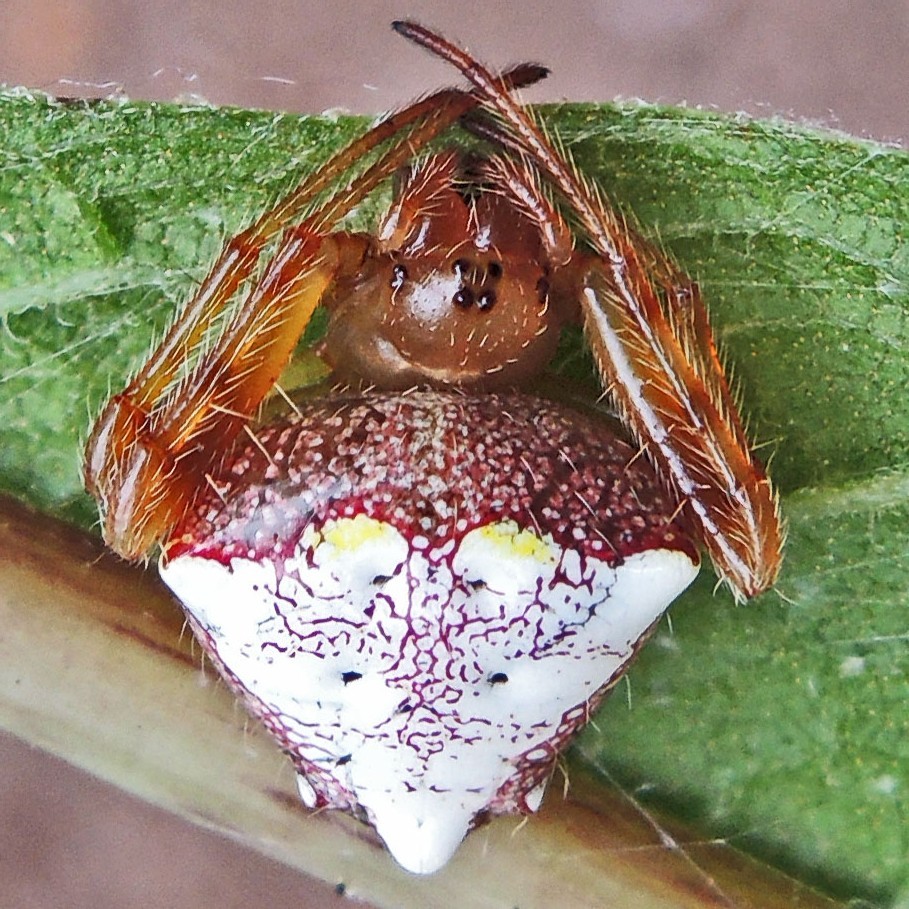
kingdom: Animalia
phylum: Arthropoda
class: Arachnida
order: Araneae
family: Araneidae
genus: Verrucosa
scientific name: Verrucosa arenata
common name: Orb weavers
